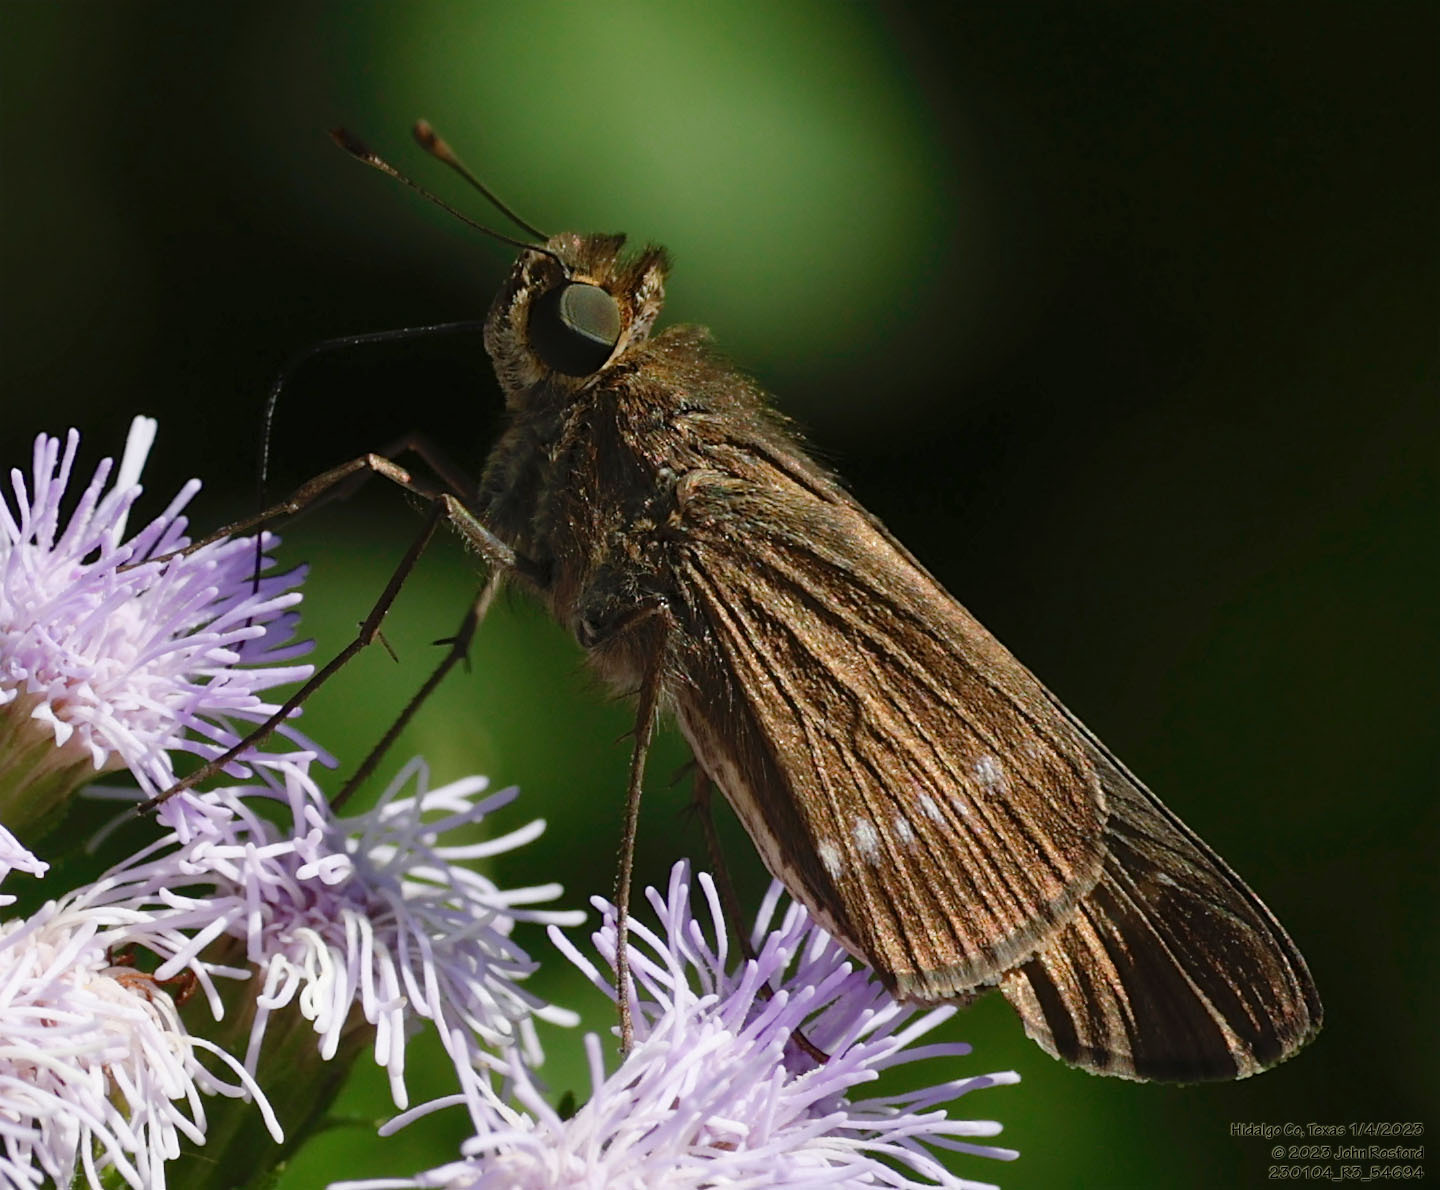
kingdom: Animalia
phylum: Arthropoda
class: Insecta
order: Lepidoptera
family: Hesperiidae
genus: Turesis
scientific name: Turesis lucas
